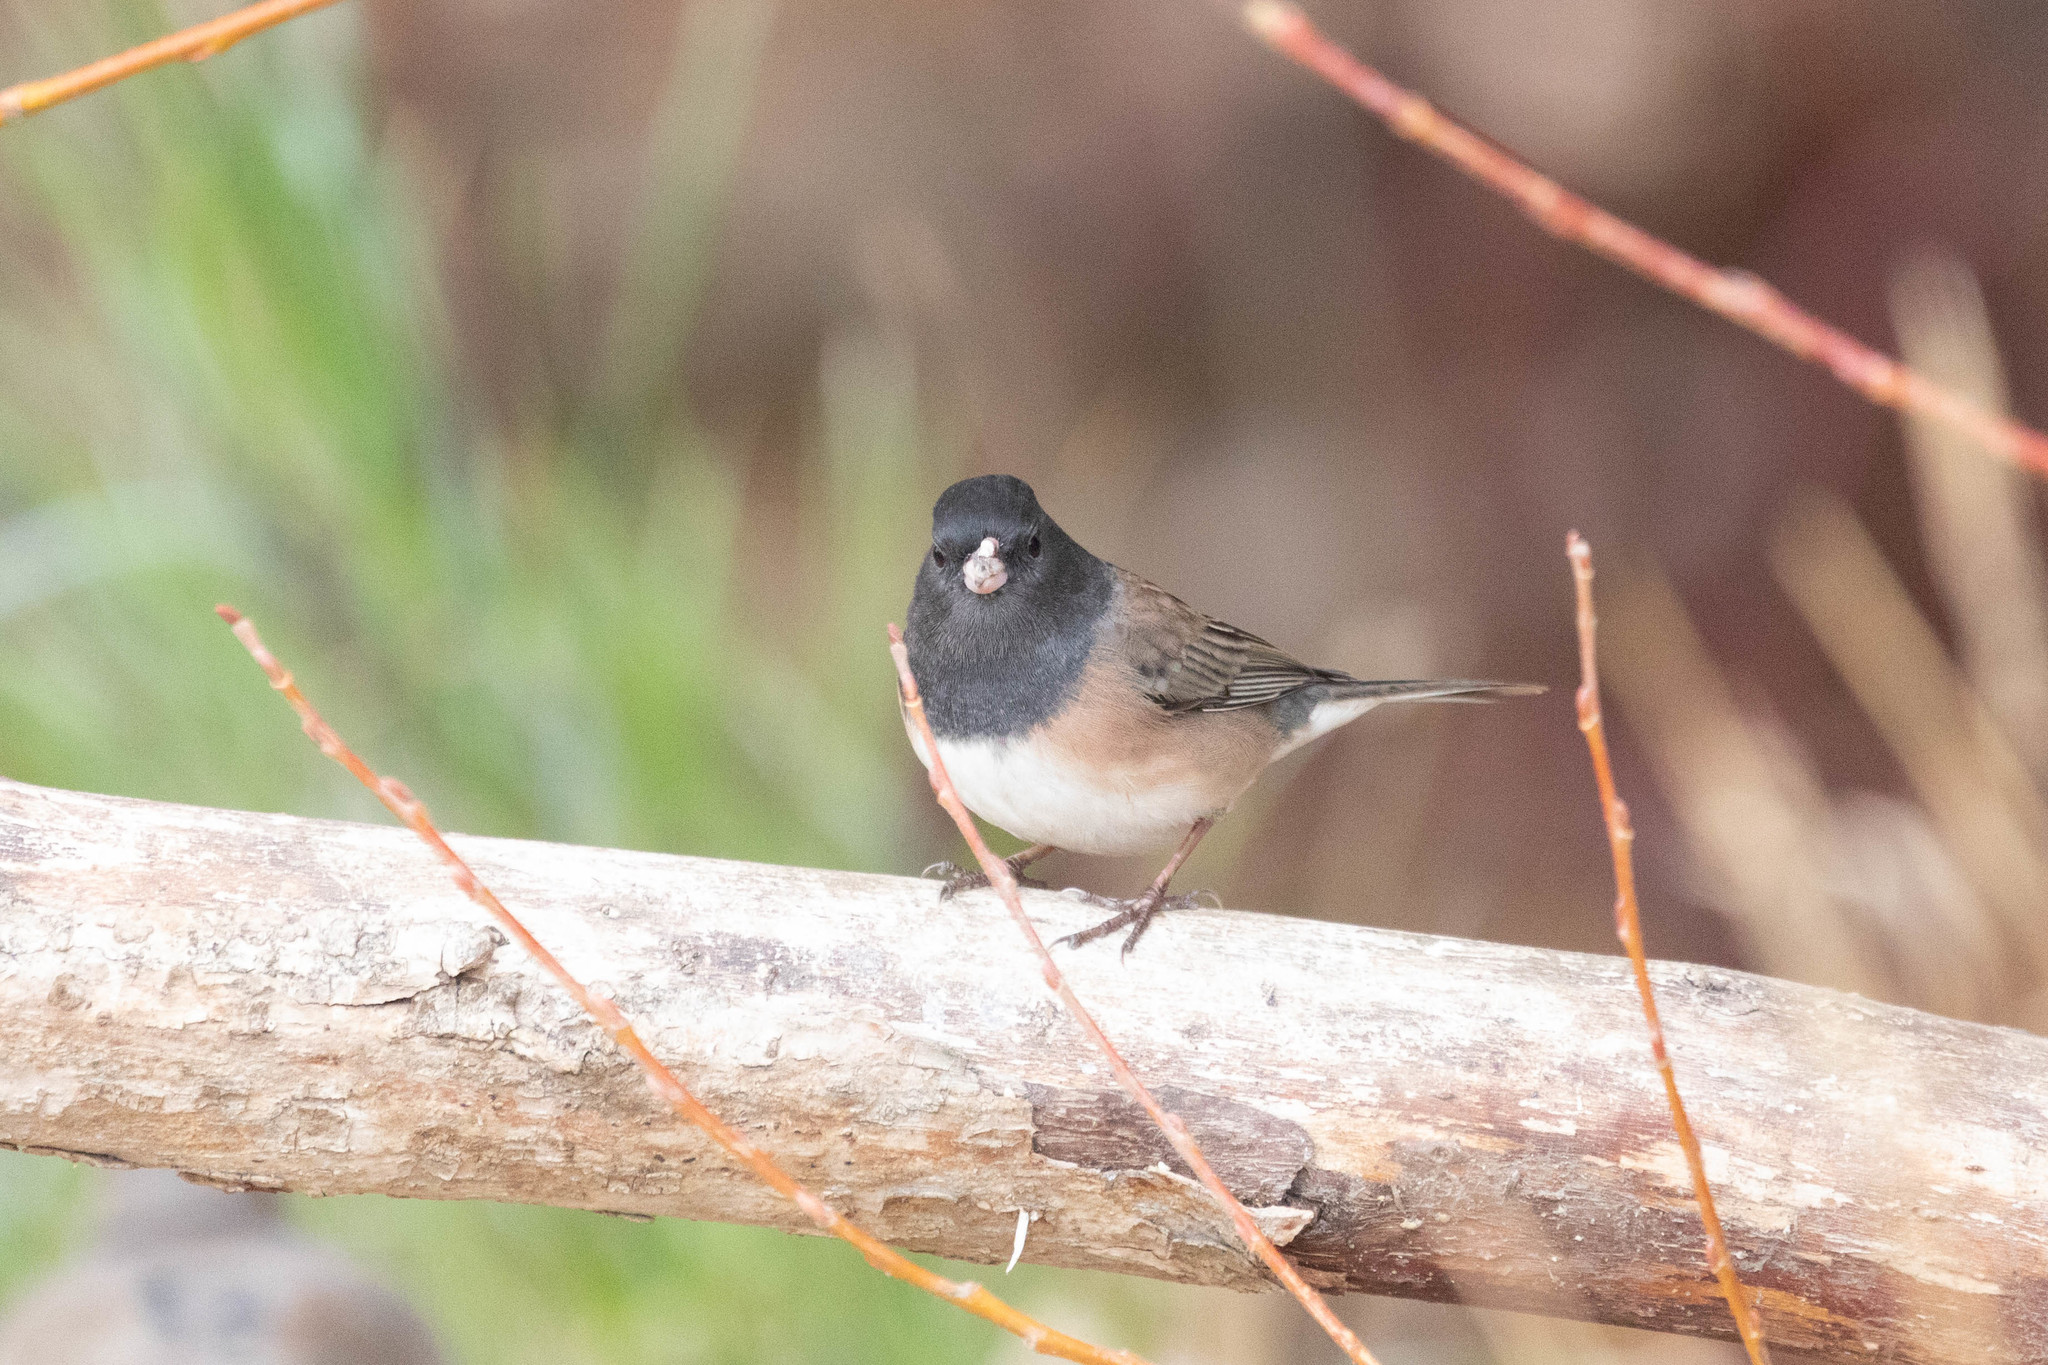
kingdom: Animalia
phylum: Chordata
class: Aves
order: Passeriformes
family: Passerellidae
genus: Junco
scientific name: Junco hyemalis
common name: Dark-eyed junco
